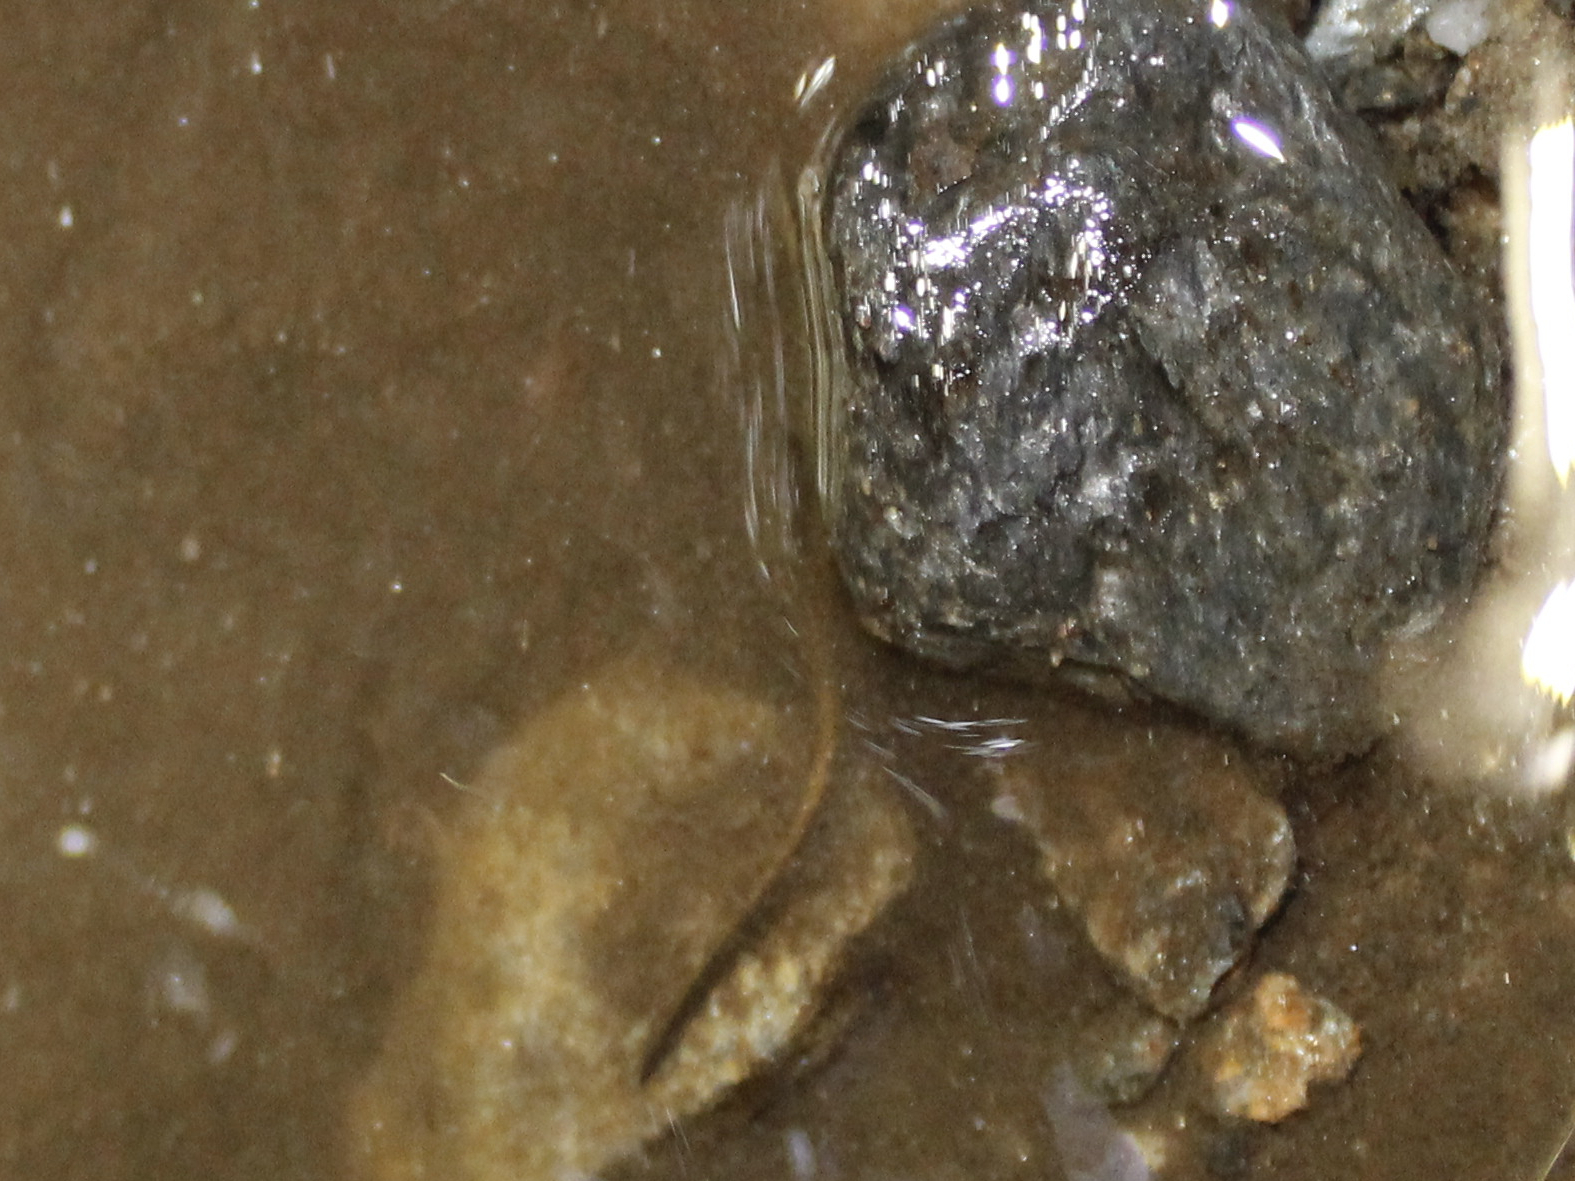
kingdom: Animalia
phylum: Chordata
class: Amphibia
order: Caudata
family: Plethodontidae
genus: Eurycea
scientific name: Eurycea bislineata
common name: Northern two-lined salamander
